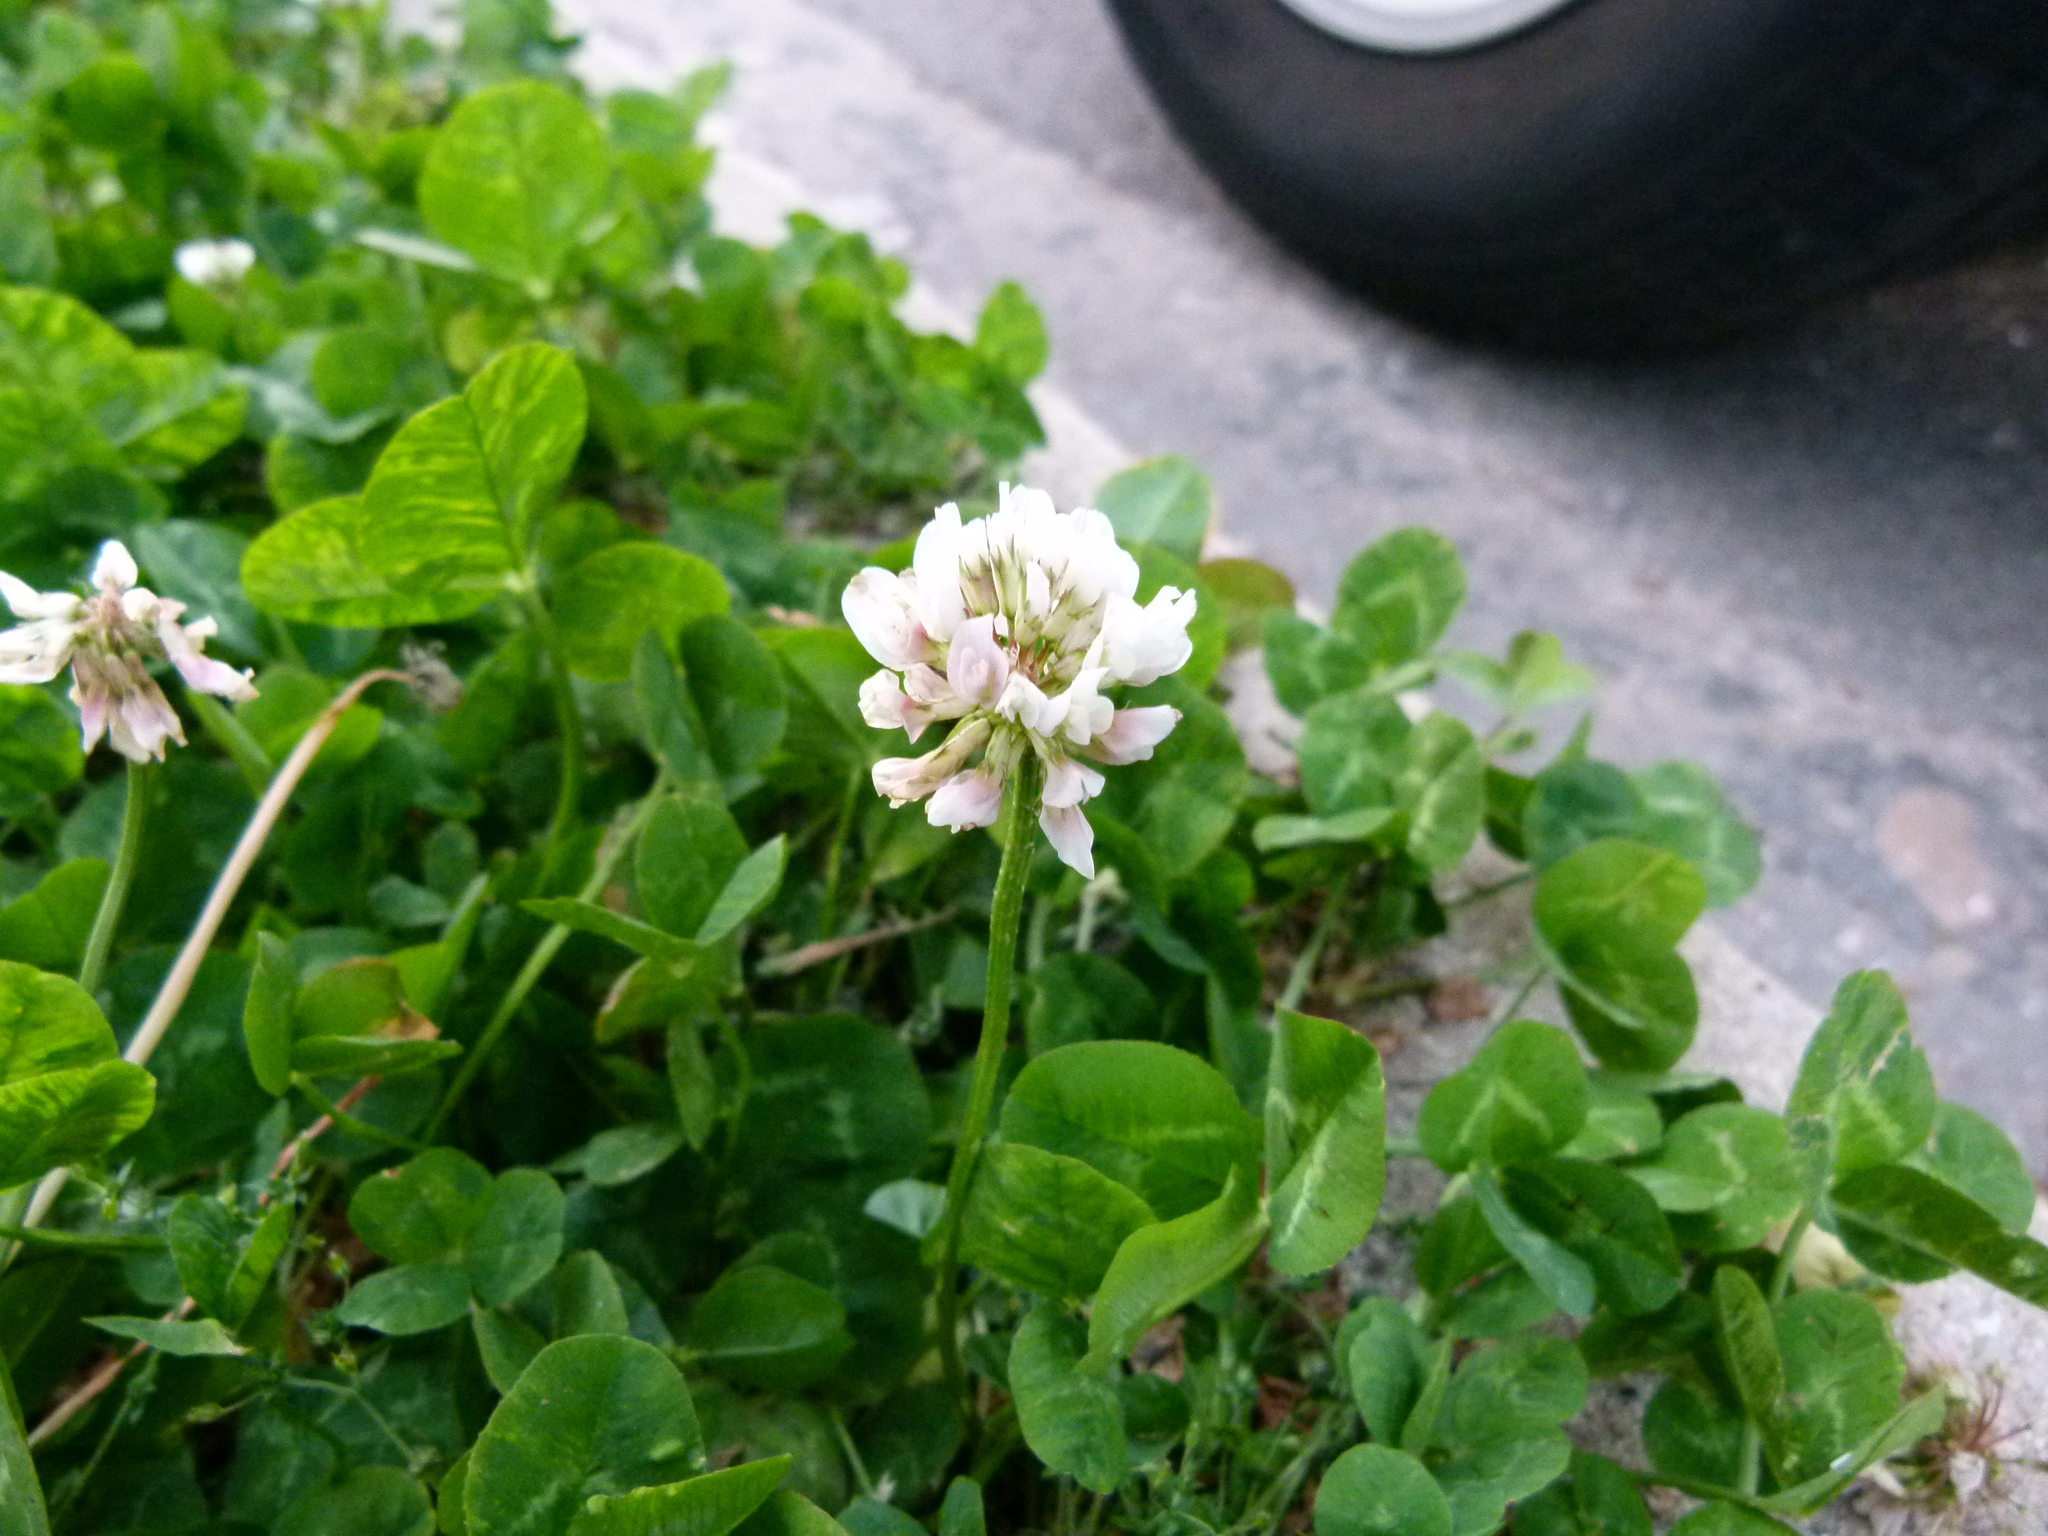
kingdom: Plantae
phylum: Tracheophyta
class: Magnoliopsida
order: Fabales
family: Fabaceae
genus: Trifolium
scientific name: Trifolium repens
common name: White clover
